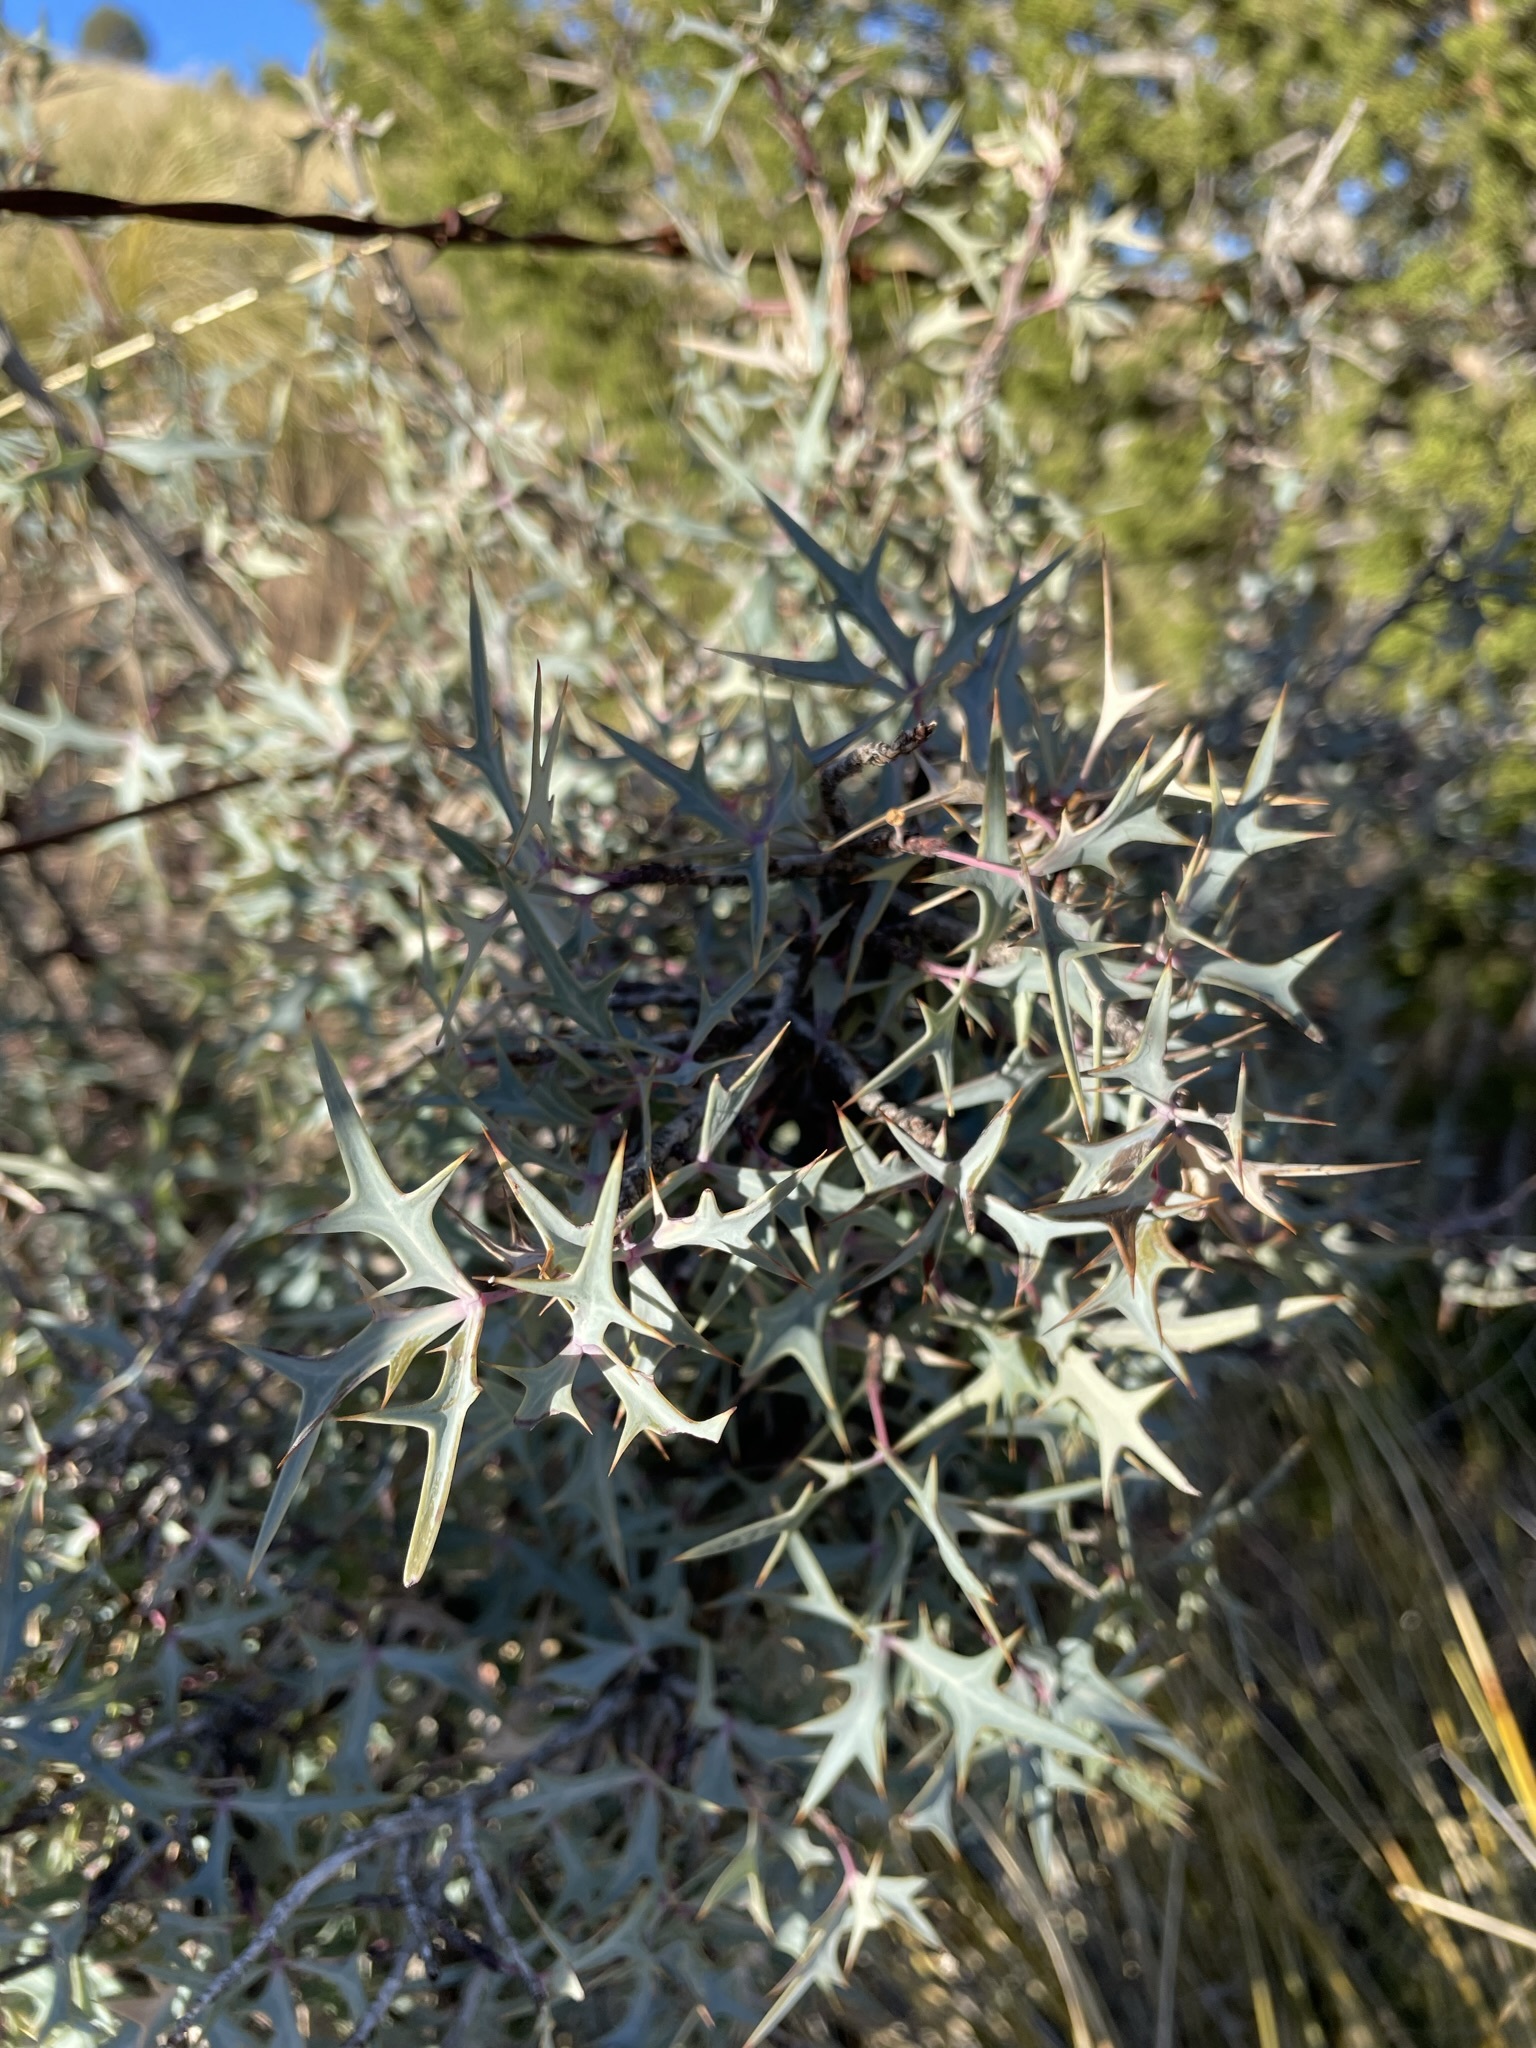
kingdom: Plantae
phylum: Tracheophyta
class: Magnoliopsida
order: Ranunculales
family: Berberidaceae
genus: Alloberberis
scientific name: Alloberberis trifoliolata
